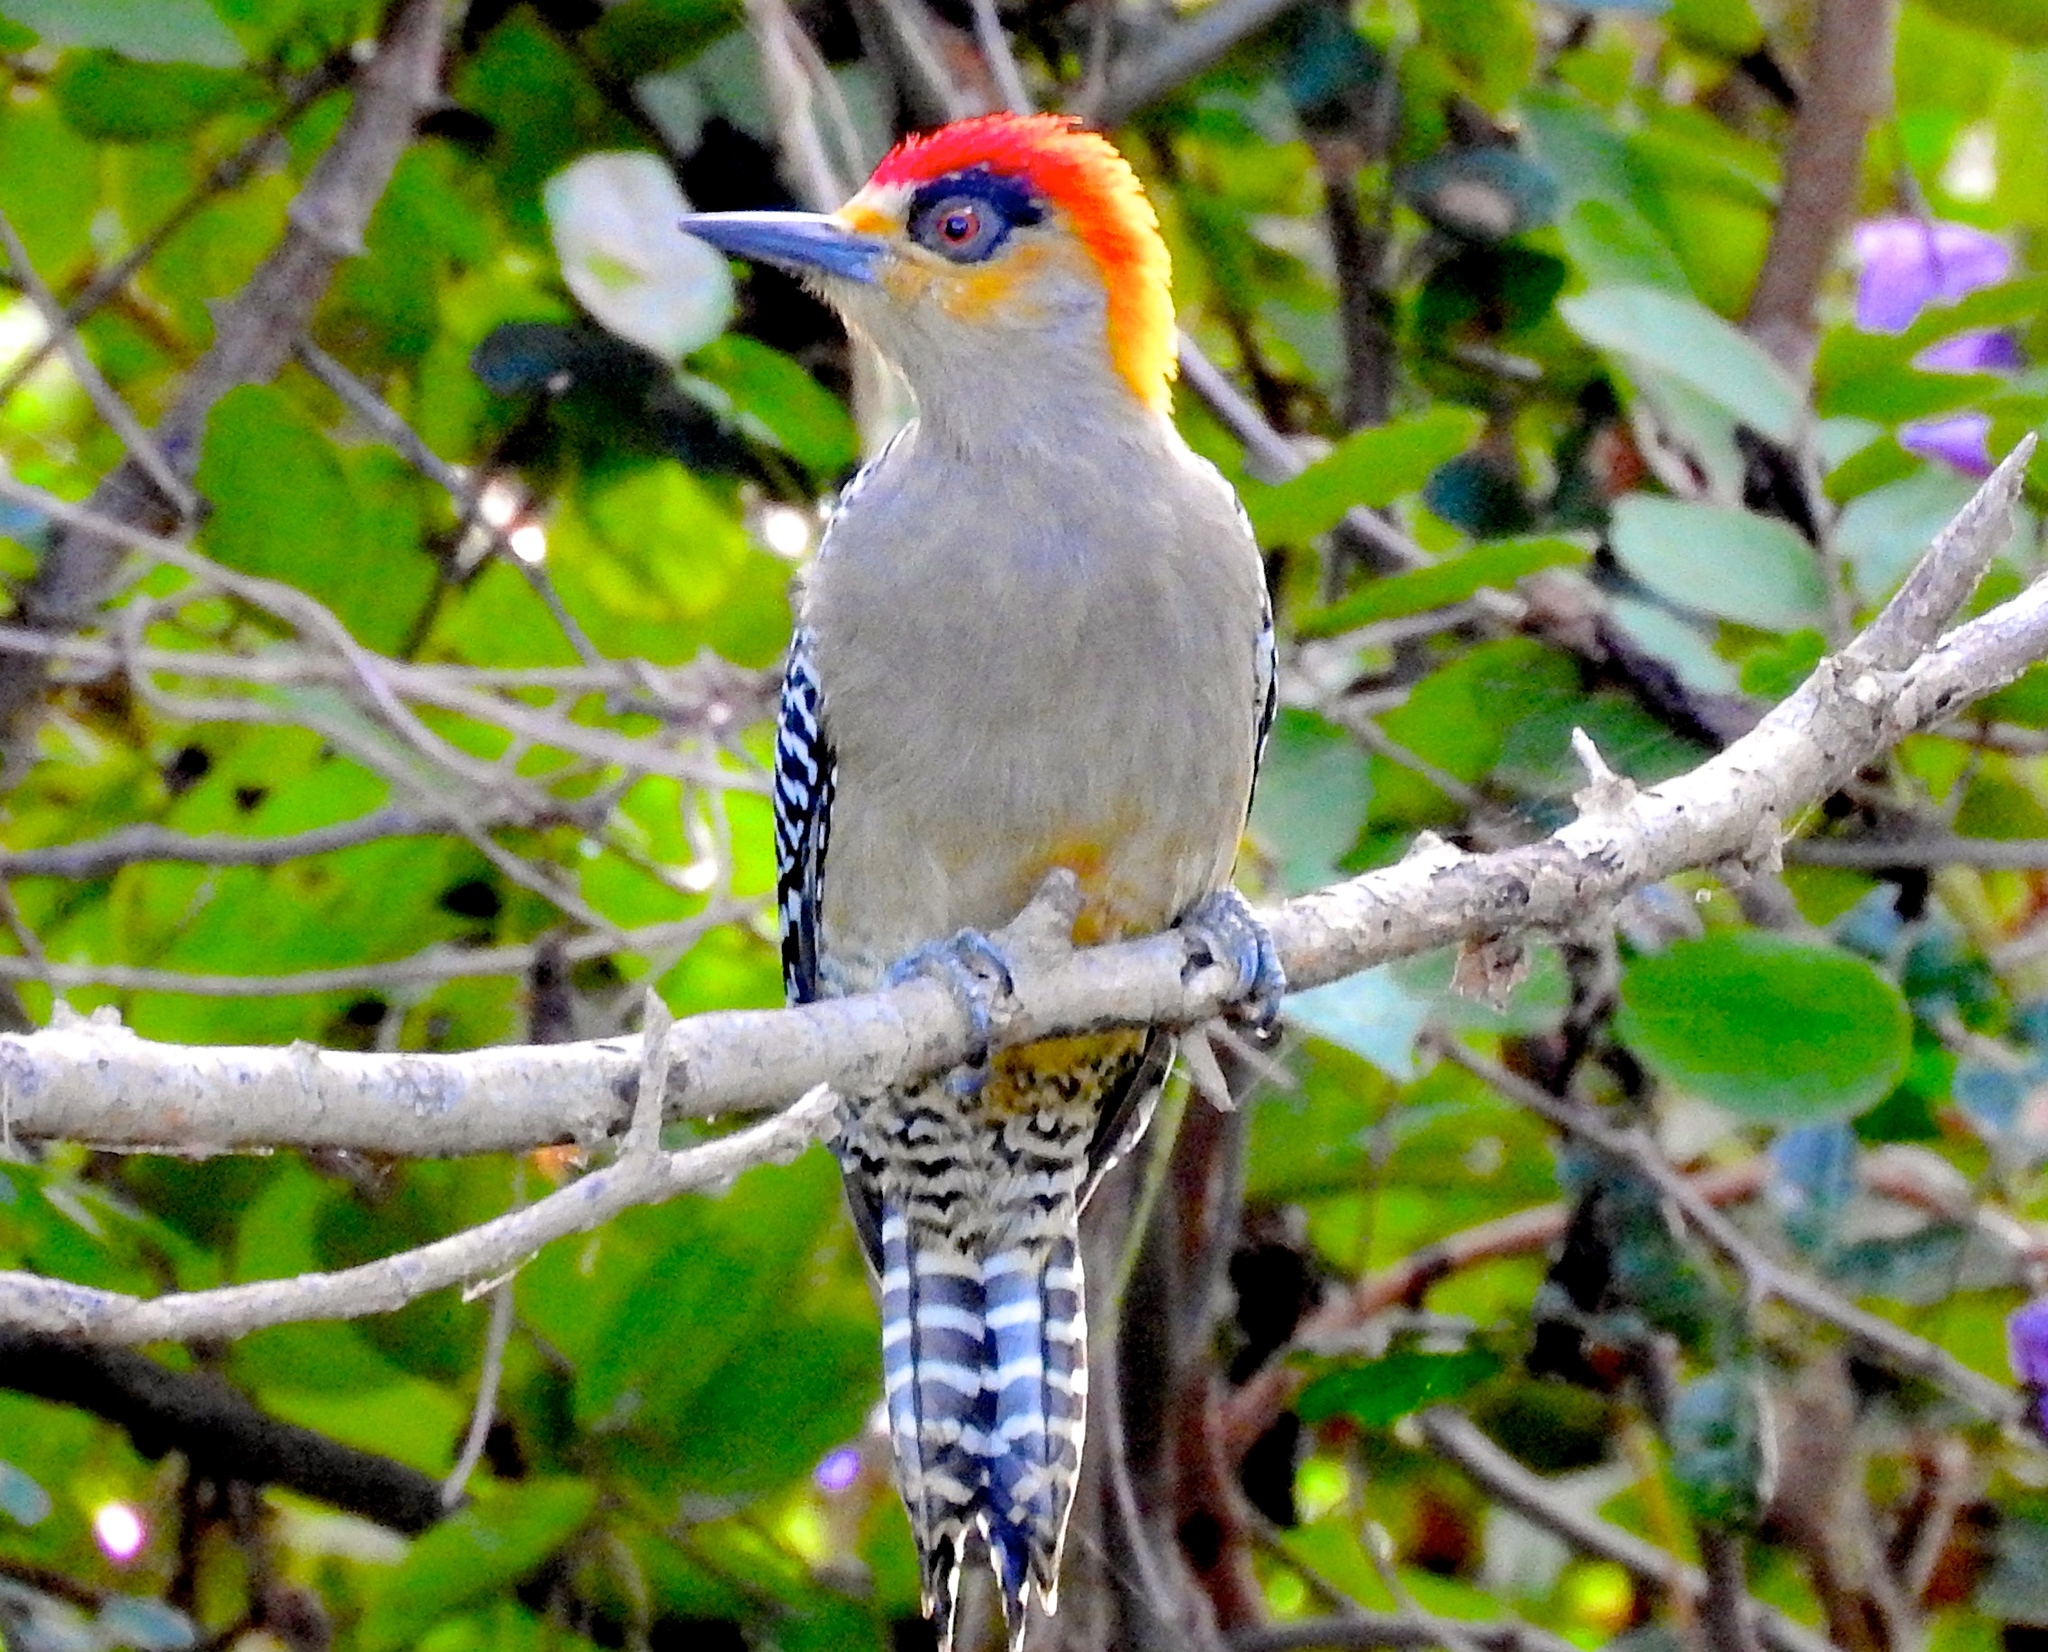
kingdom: Animalia
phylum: Chordata
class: Aves
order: Piciformes
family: Picidae
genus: Melanerpes
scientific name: Melanerpes chrysogenys
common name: Golden-cheeked woodpecker
